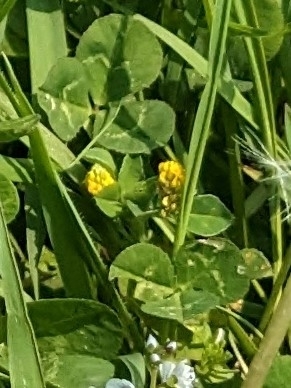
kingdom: Plantae
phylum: Tracheophyta
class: Magnoliopsida
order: Fabales
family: Fabaceae
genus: Medicago
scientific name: Medicago lupulina
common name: Black medick
